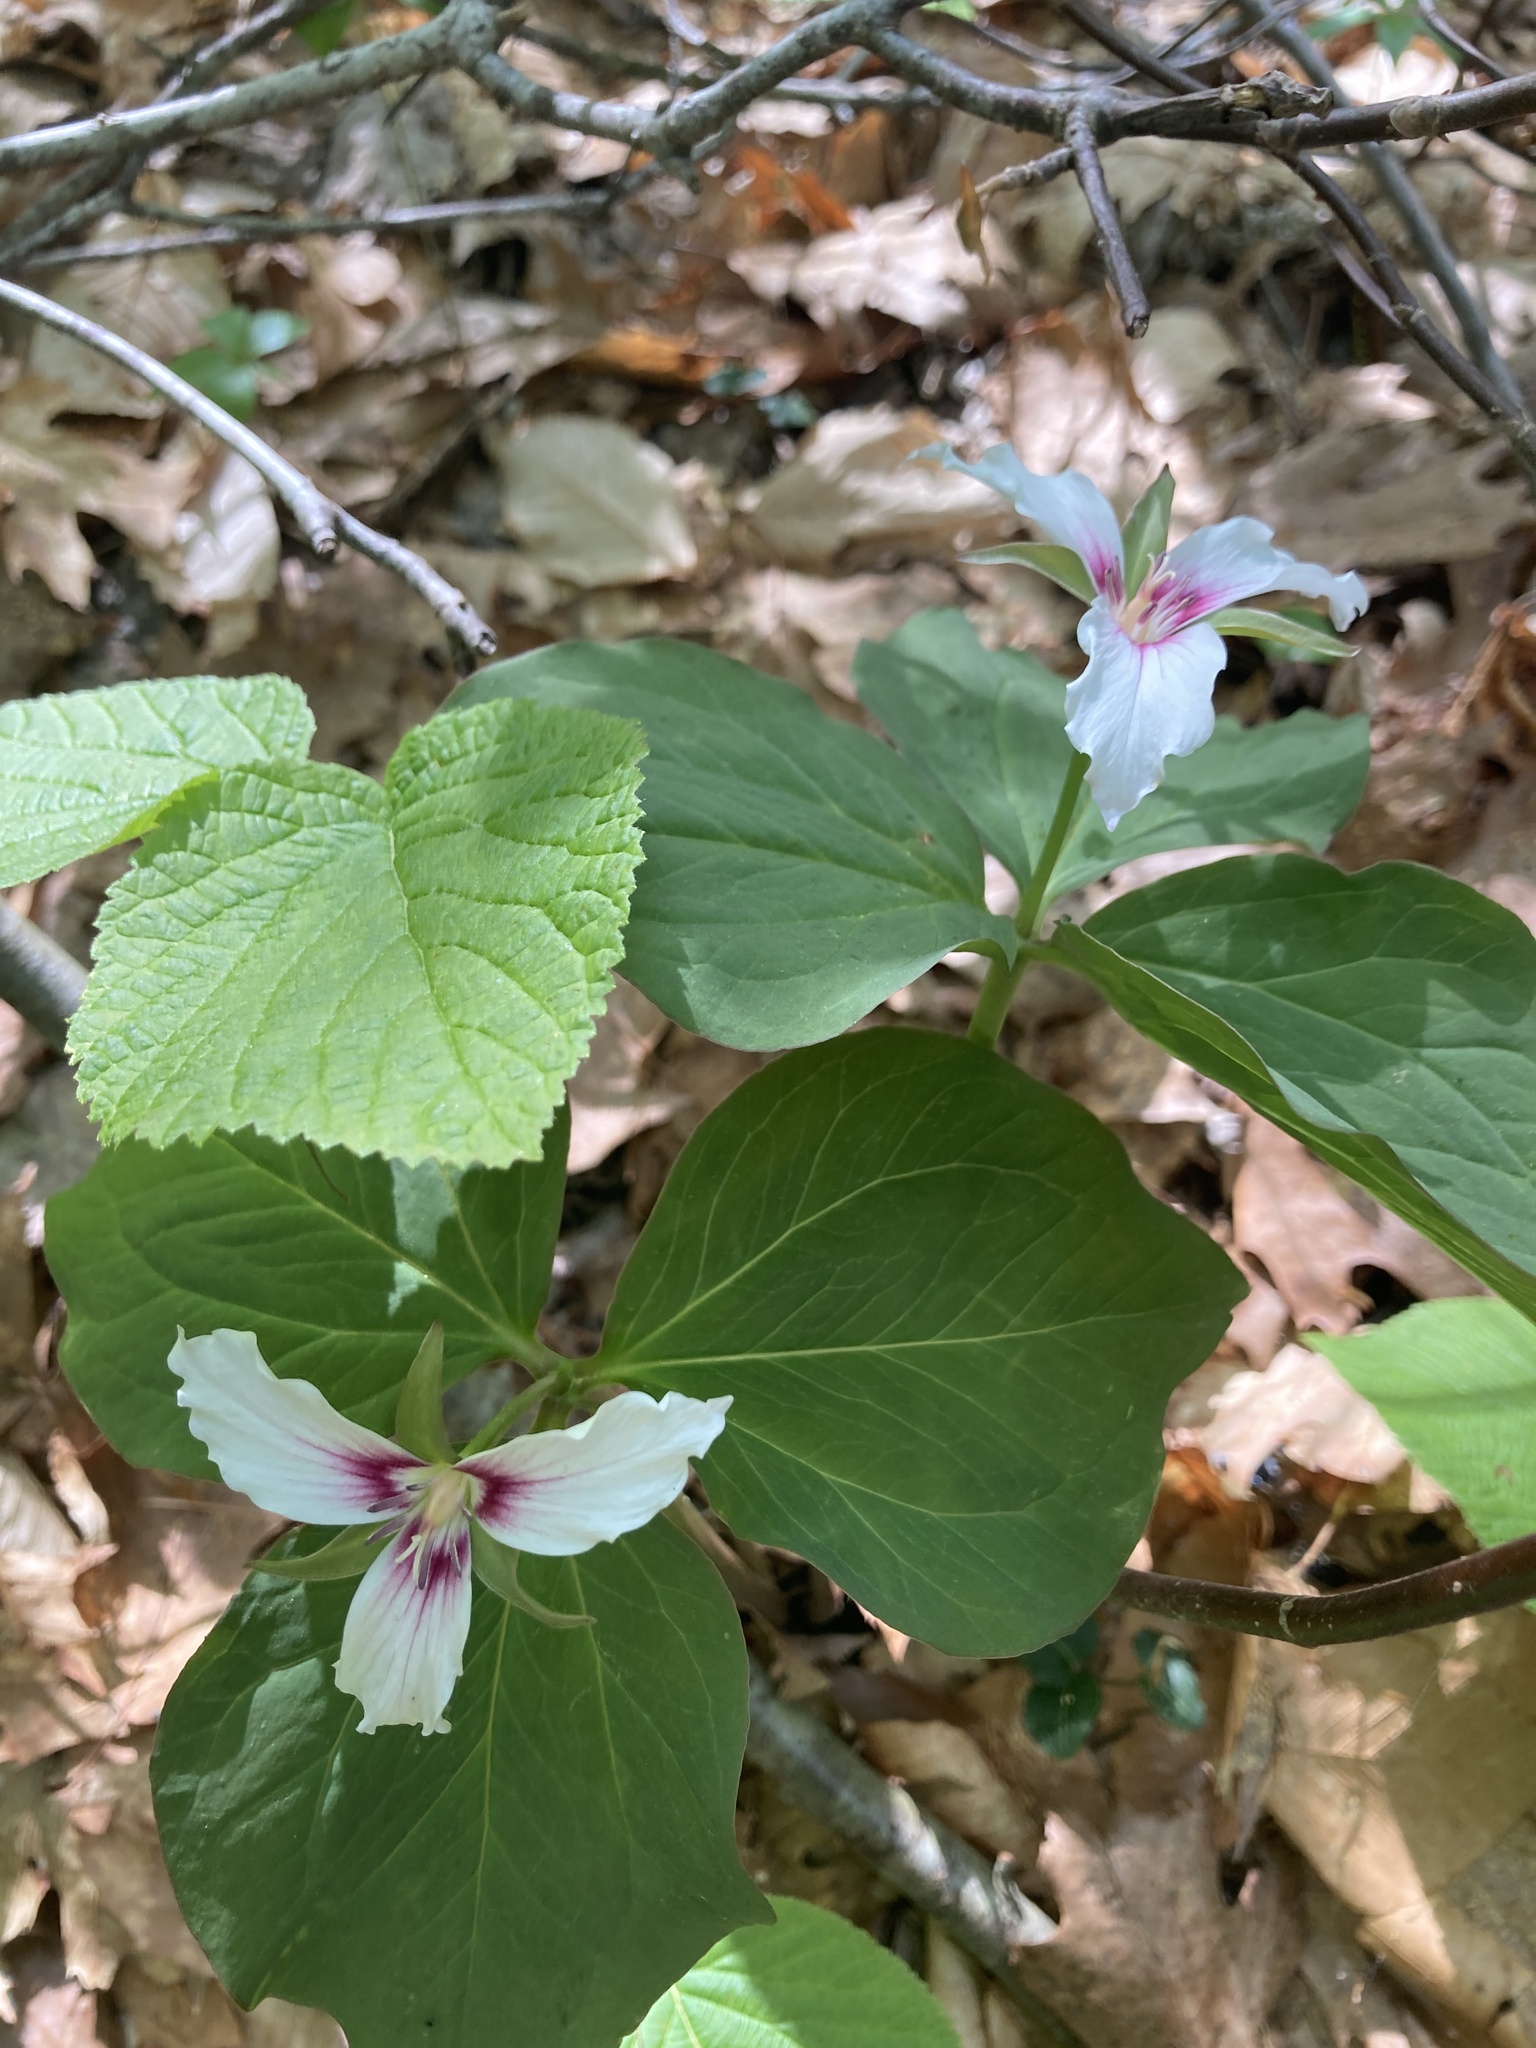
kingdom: Plantae
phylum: Tracheophyta
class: Liliopsida
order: Liliales
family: Melanthiaceae
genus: Trillium
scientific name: Trillium undulatum
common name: Paint trillium
